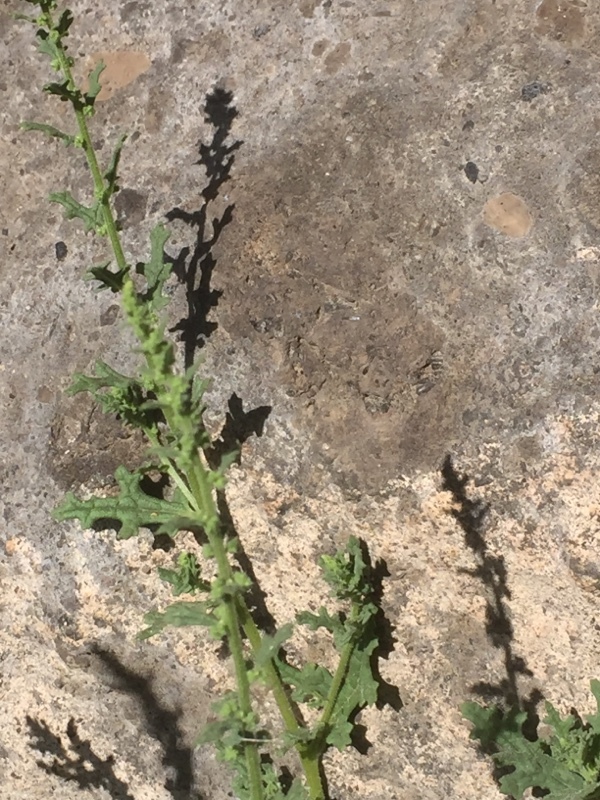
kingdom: Plantae
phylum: Tracheophyta
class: Magnoliopsida
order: Caryophyllales
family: Amaranthaceae
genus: Dysphania
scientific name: Dysphania ambrosioides
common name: Wormseed
